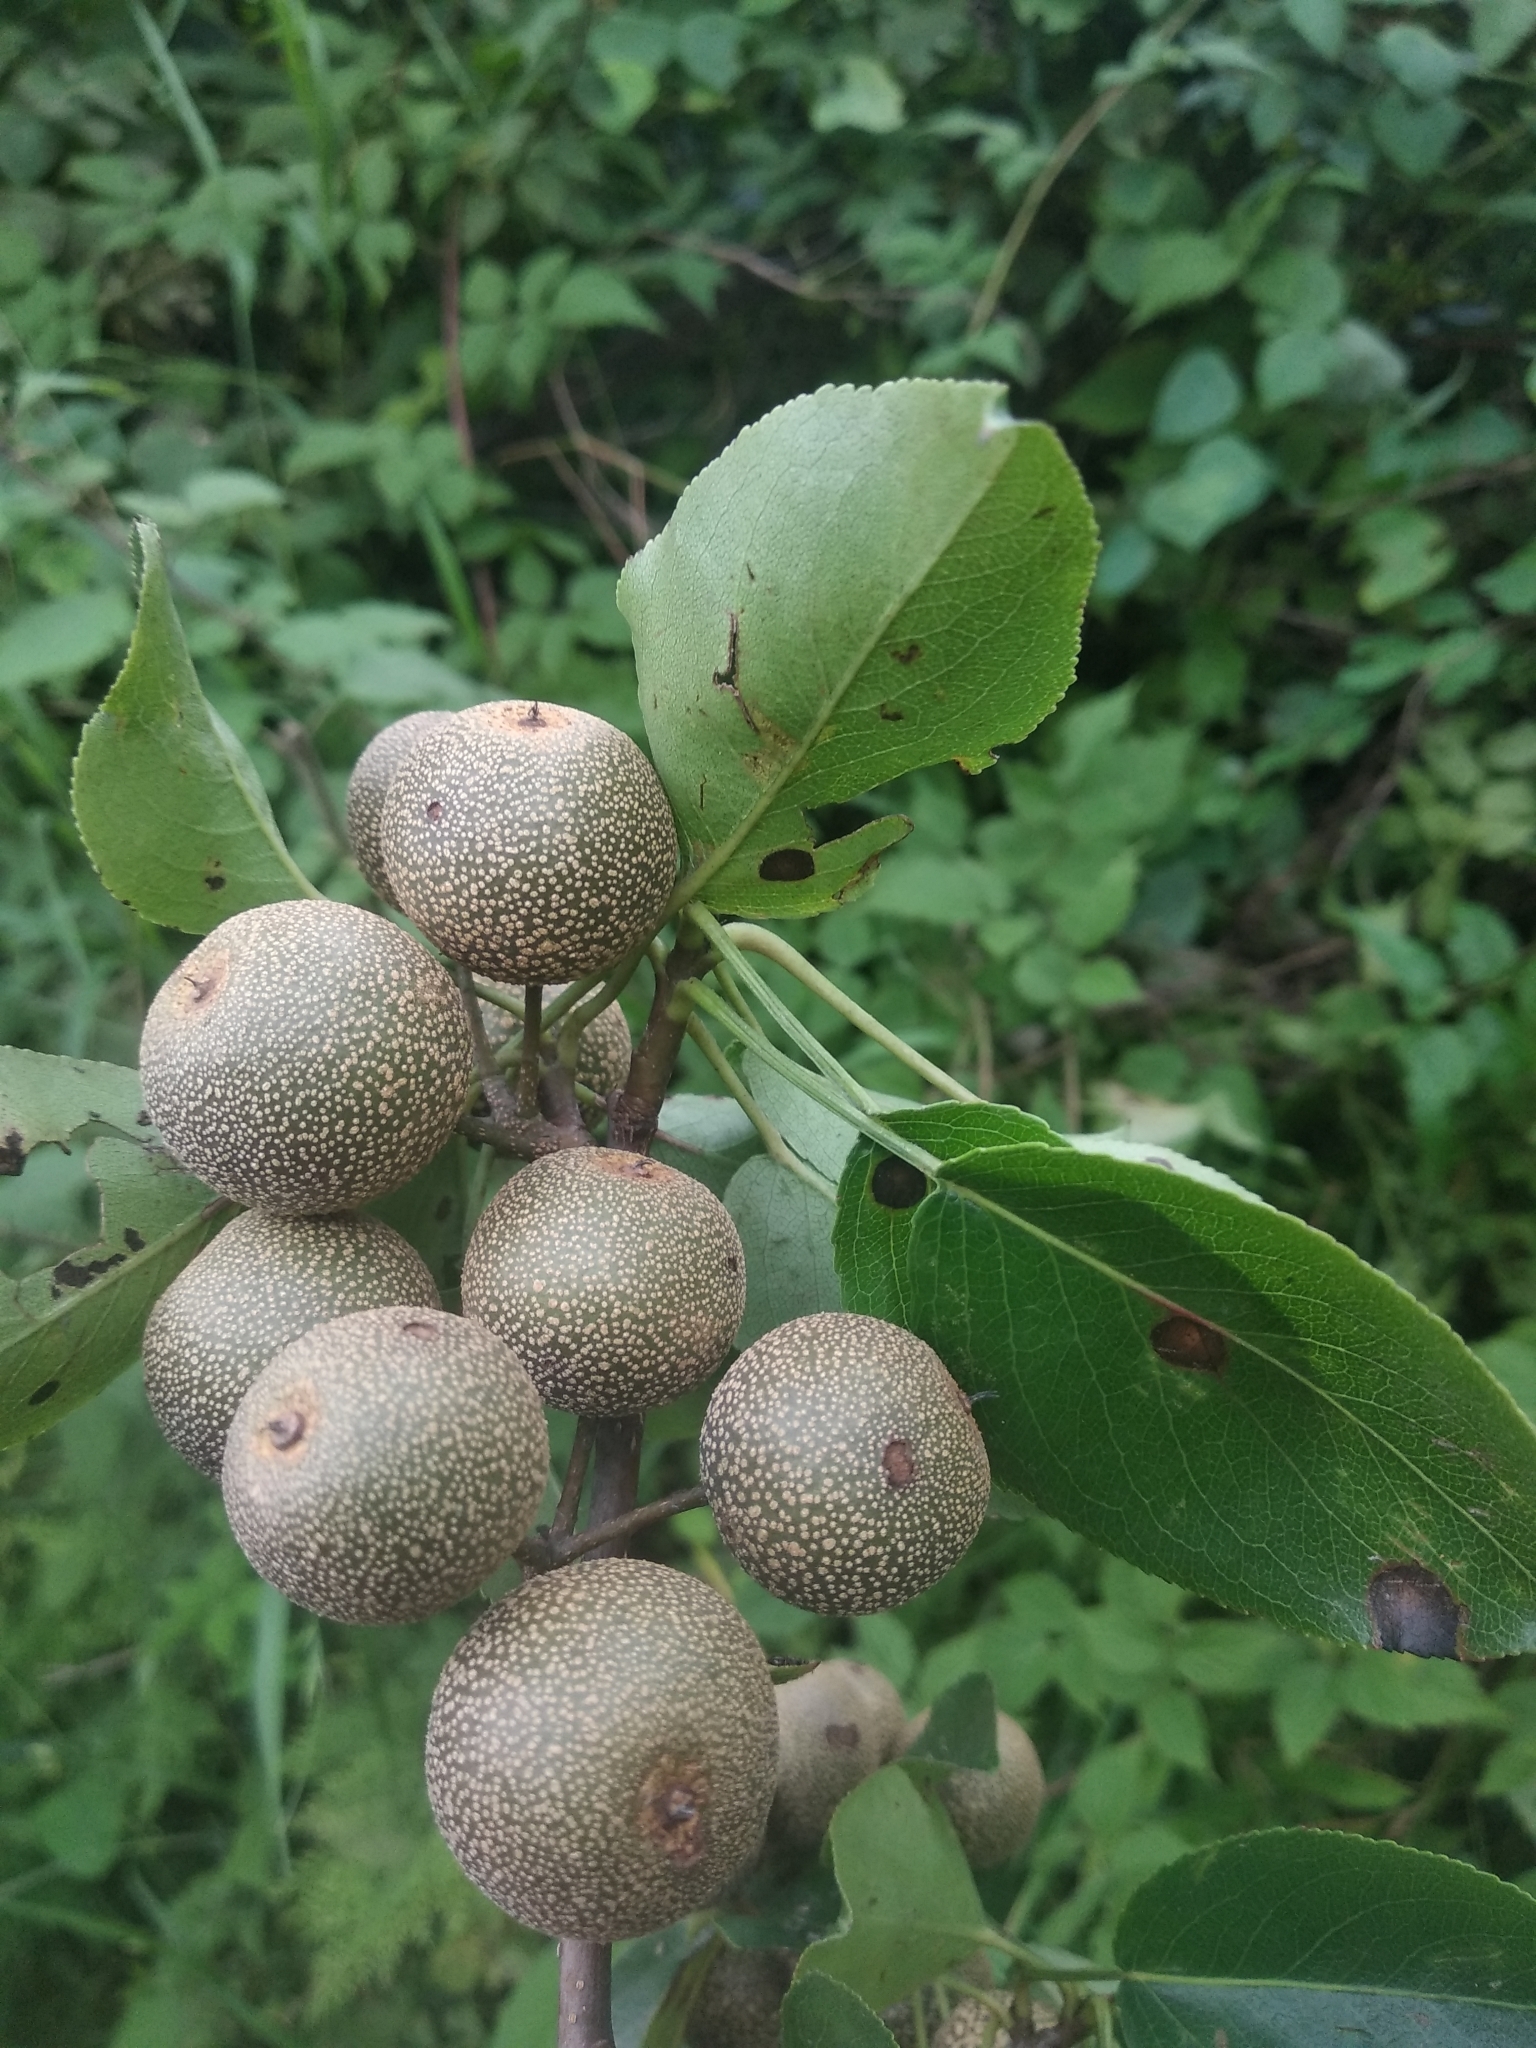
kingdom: Plantae
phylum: Tracheophyta
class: Magnoliopsida
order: Rosales
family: Rosaceae
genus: Pyrus
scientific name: Pyrus pashia
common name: Himalayan pear
